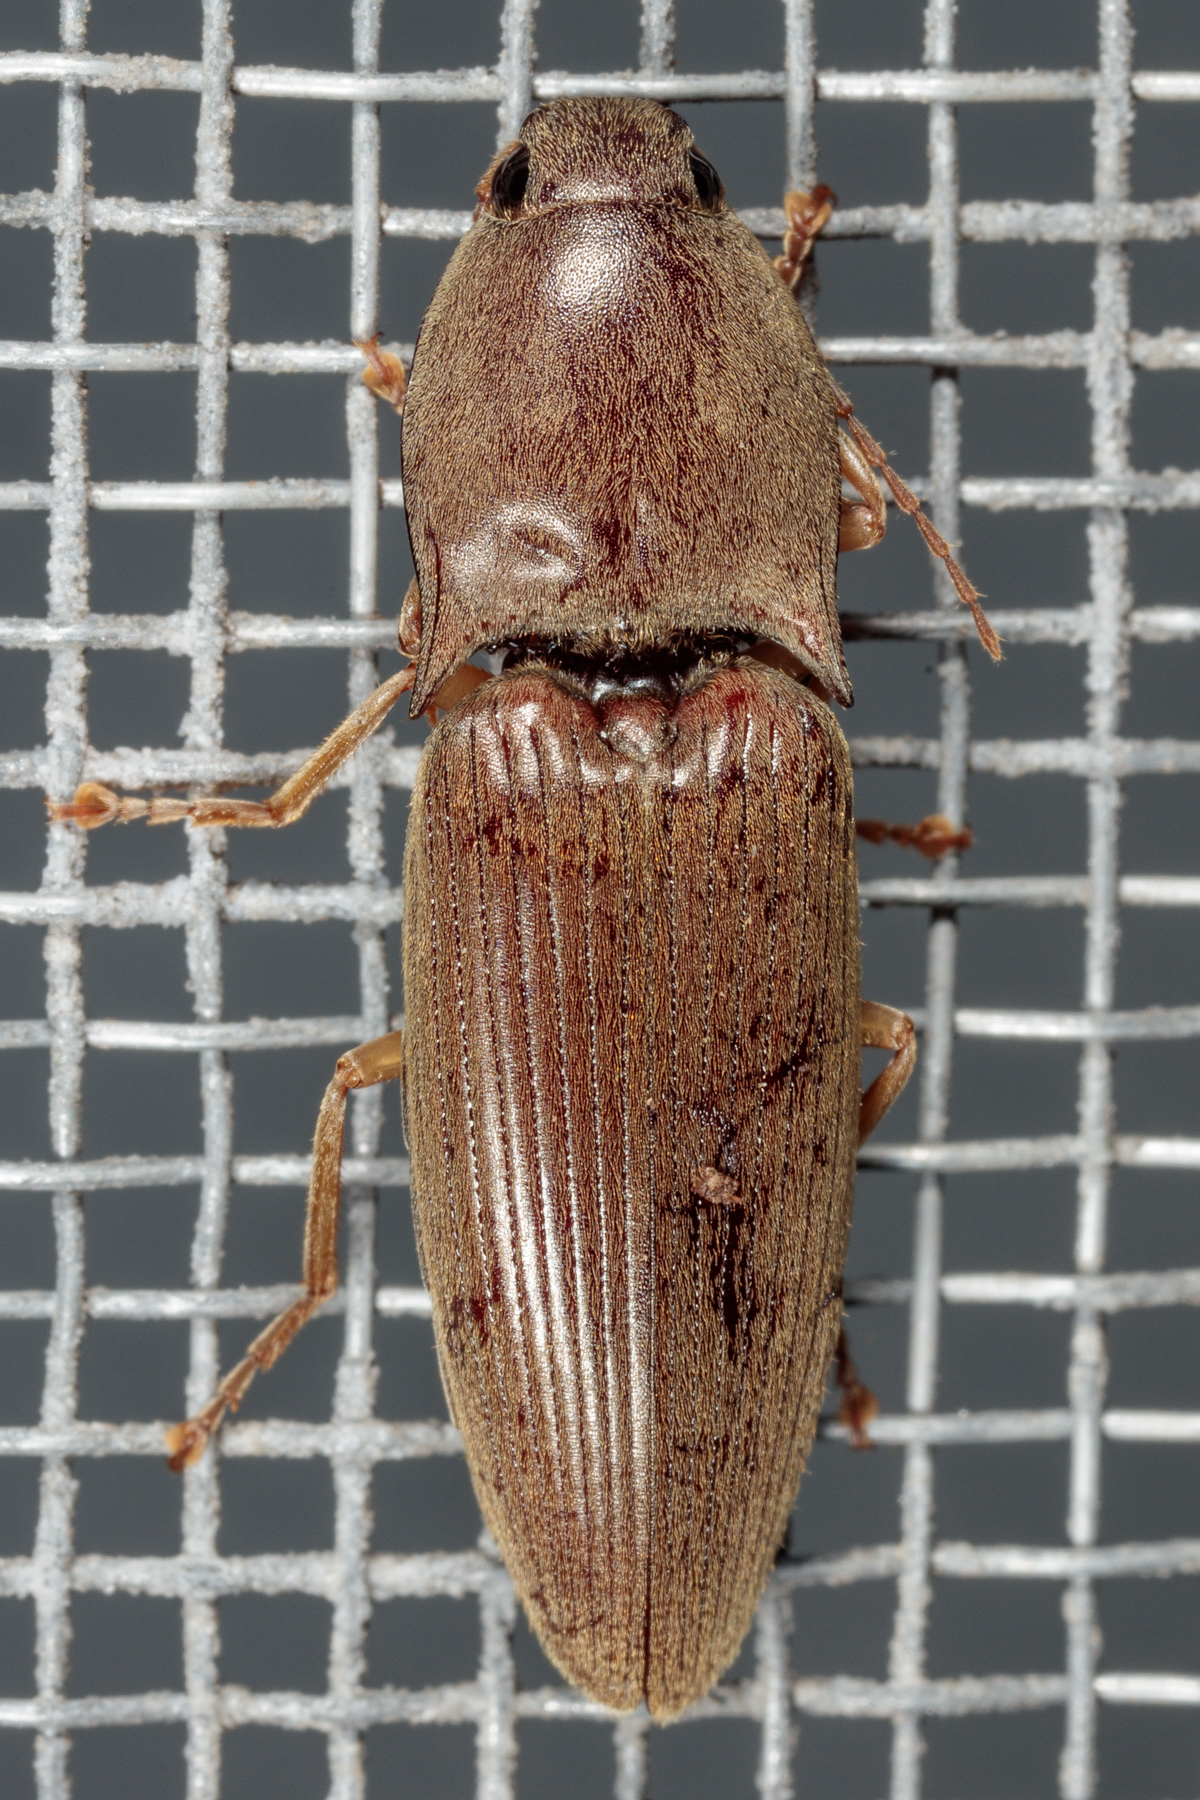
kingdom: Animalia
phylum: Arthropoda
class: Insecta
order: Coleoptera
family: Elateridae
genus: Monocrepidius
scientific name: Monocrepidius lividus
